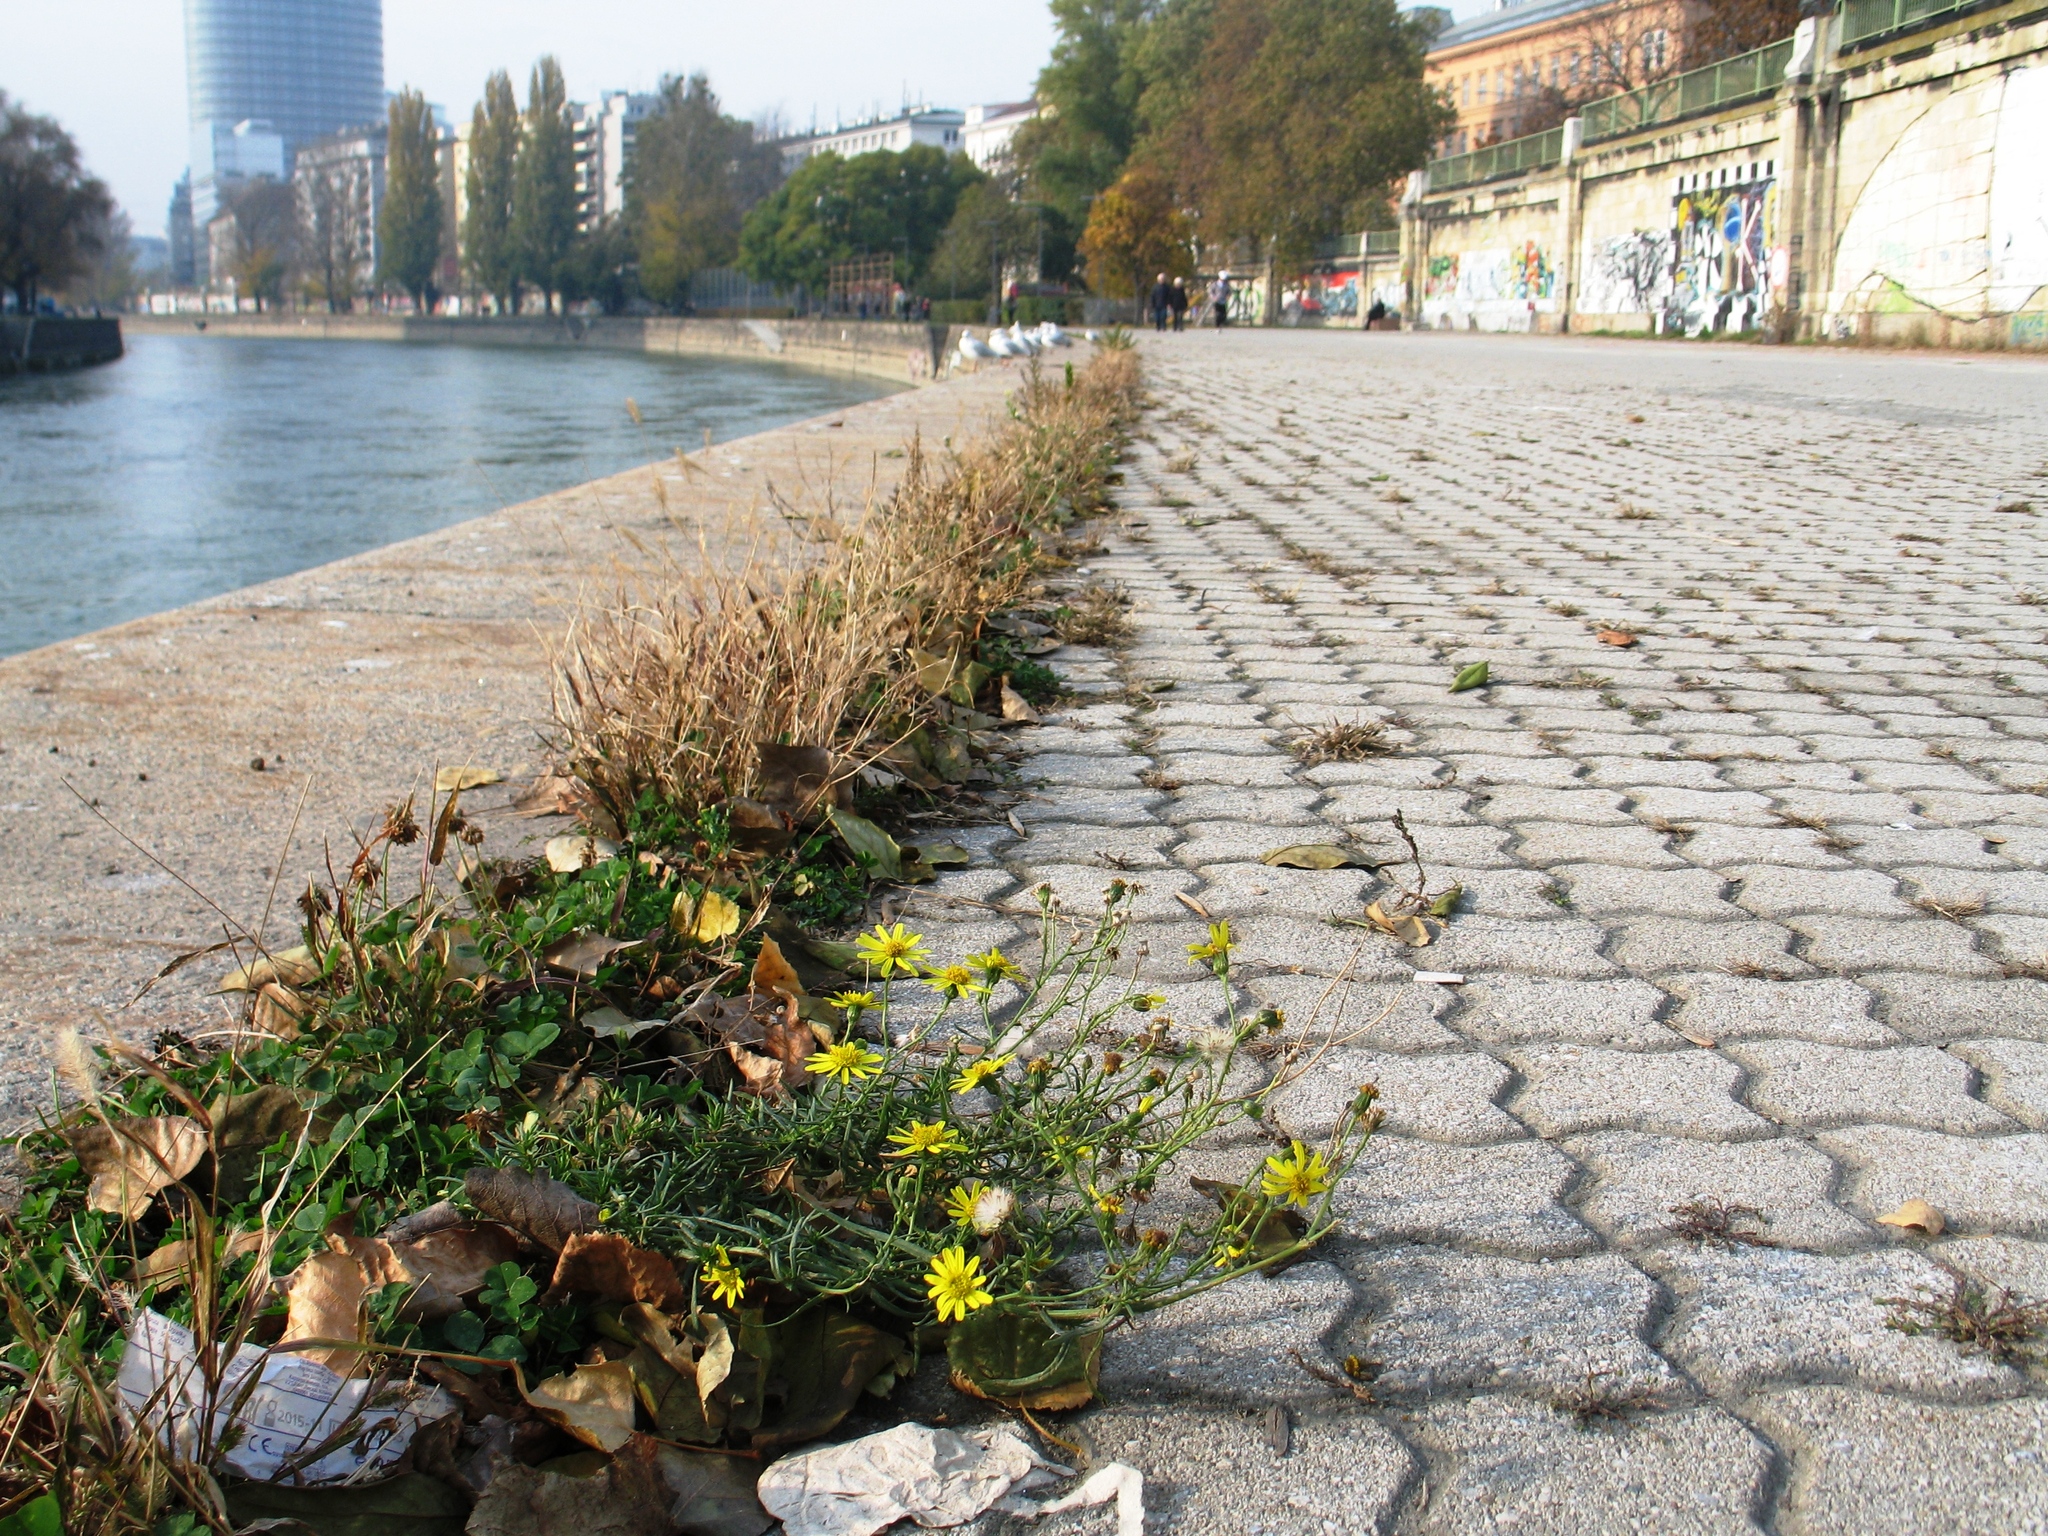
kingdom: Plantae
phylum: Tracheophyta
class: Magnoliopsida
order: Asterales
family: Asteraceae
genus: Senecio
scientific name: Senecio inaequidens
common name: Narrow-leaved ragwort
